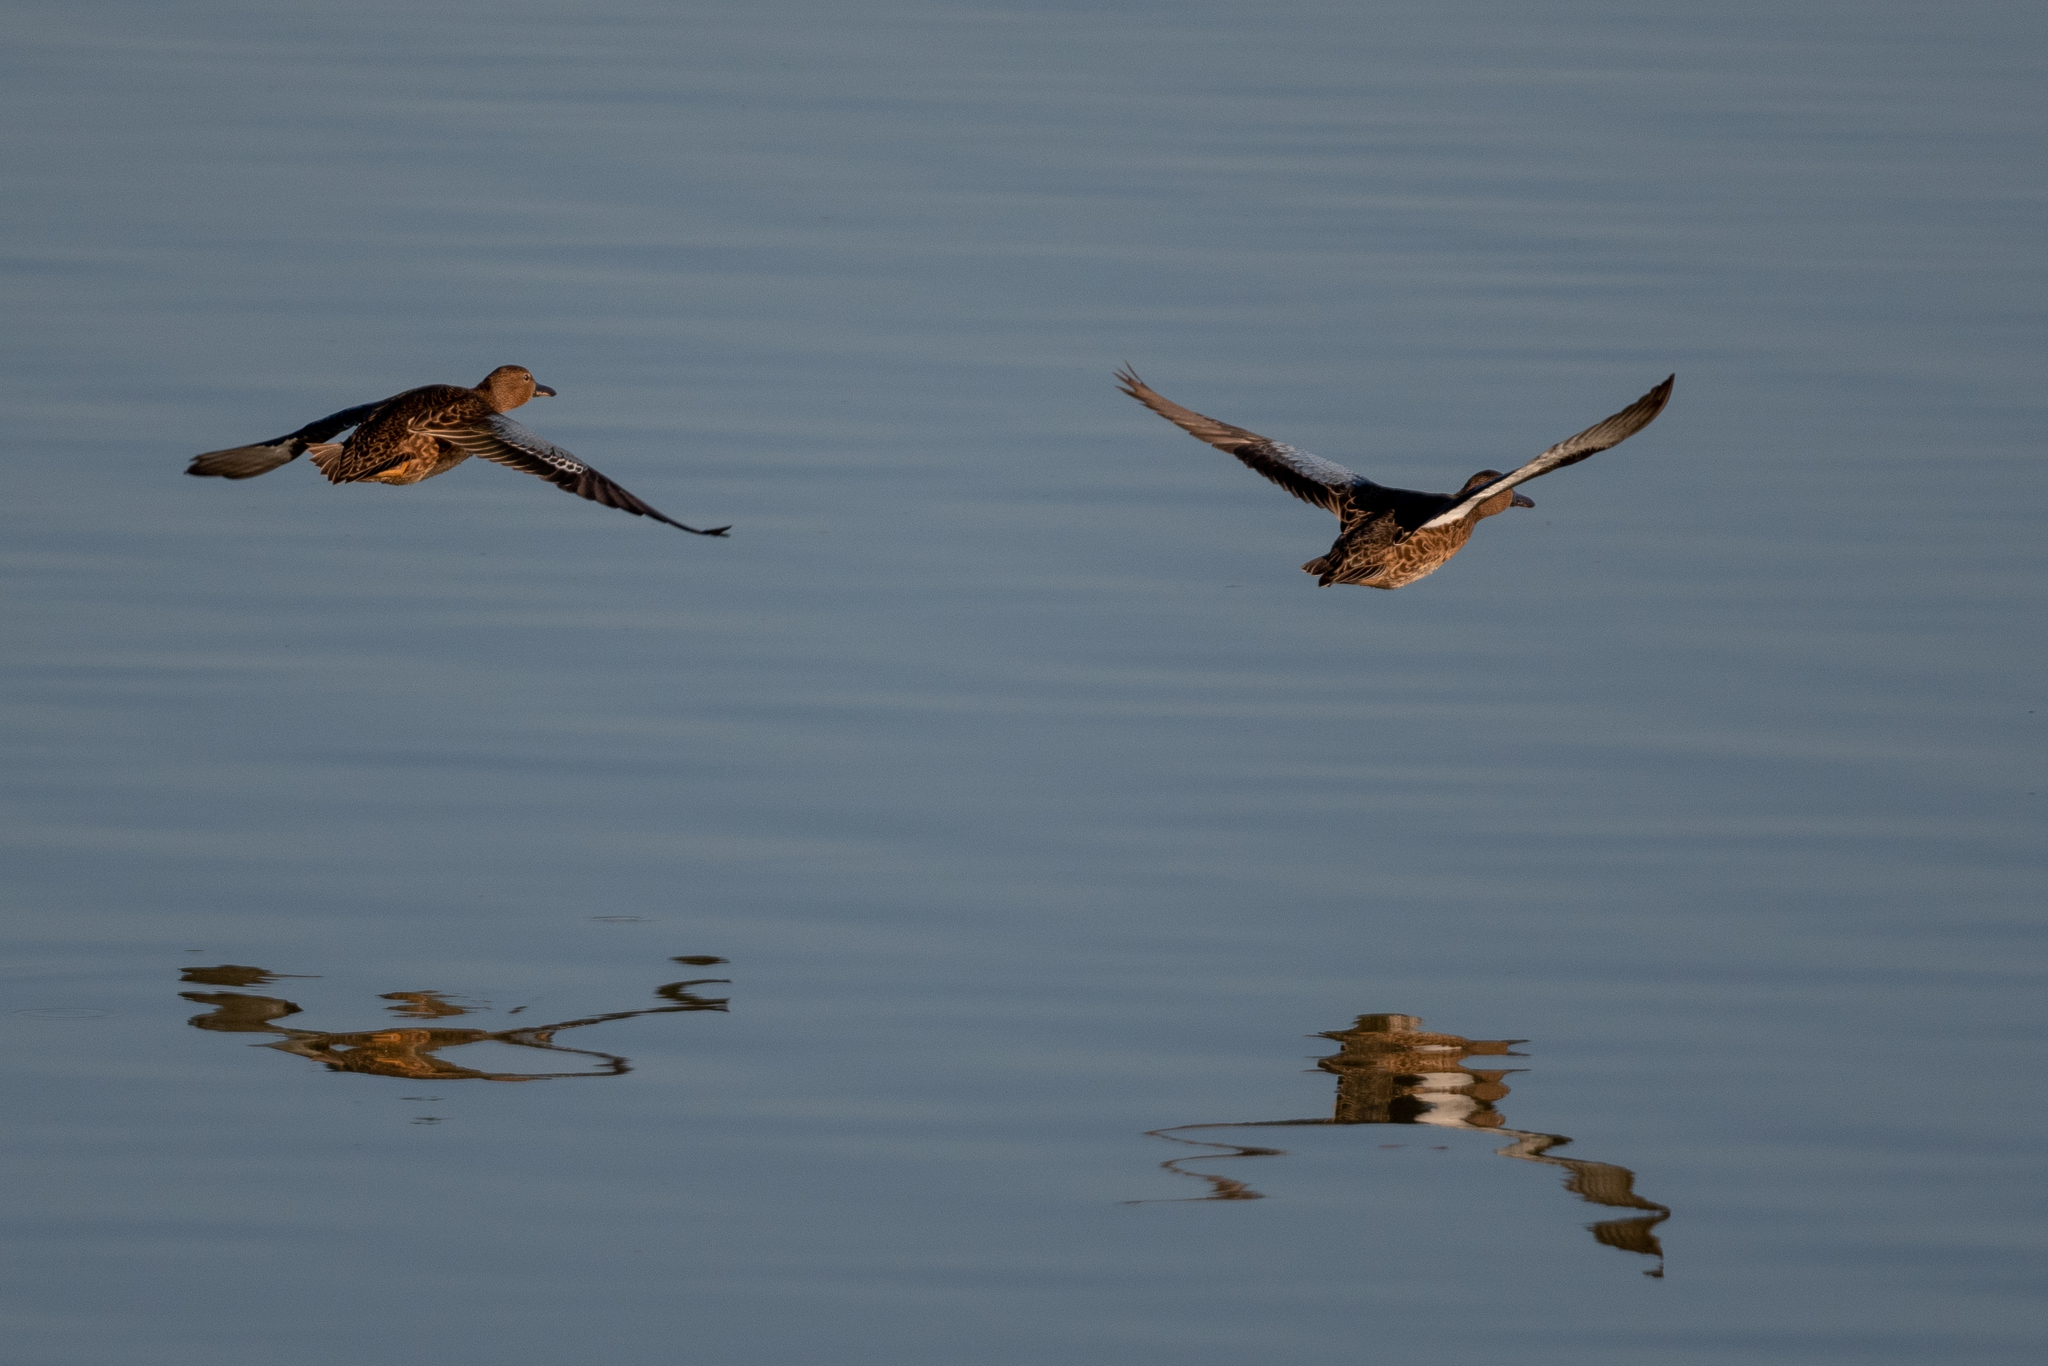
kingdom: Animalia
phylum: Chordata
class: Aves
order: Anseriformes
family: Anatidae
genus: Spatula
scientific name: Spatula cyanoptera
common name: Cinnamon teal
